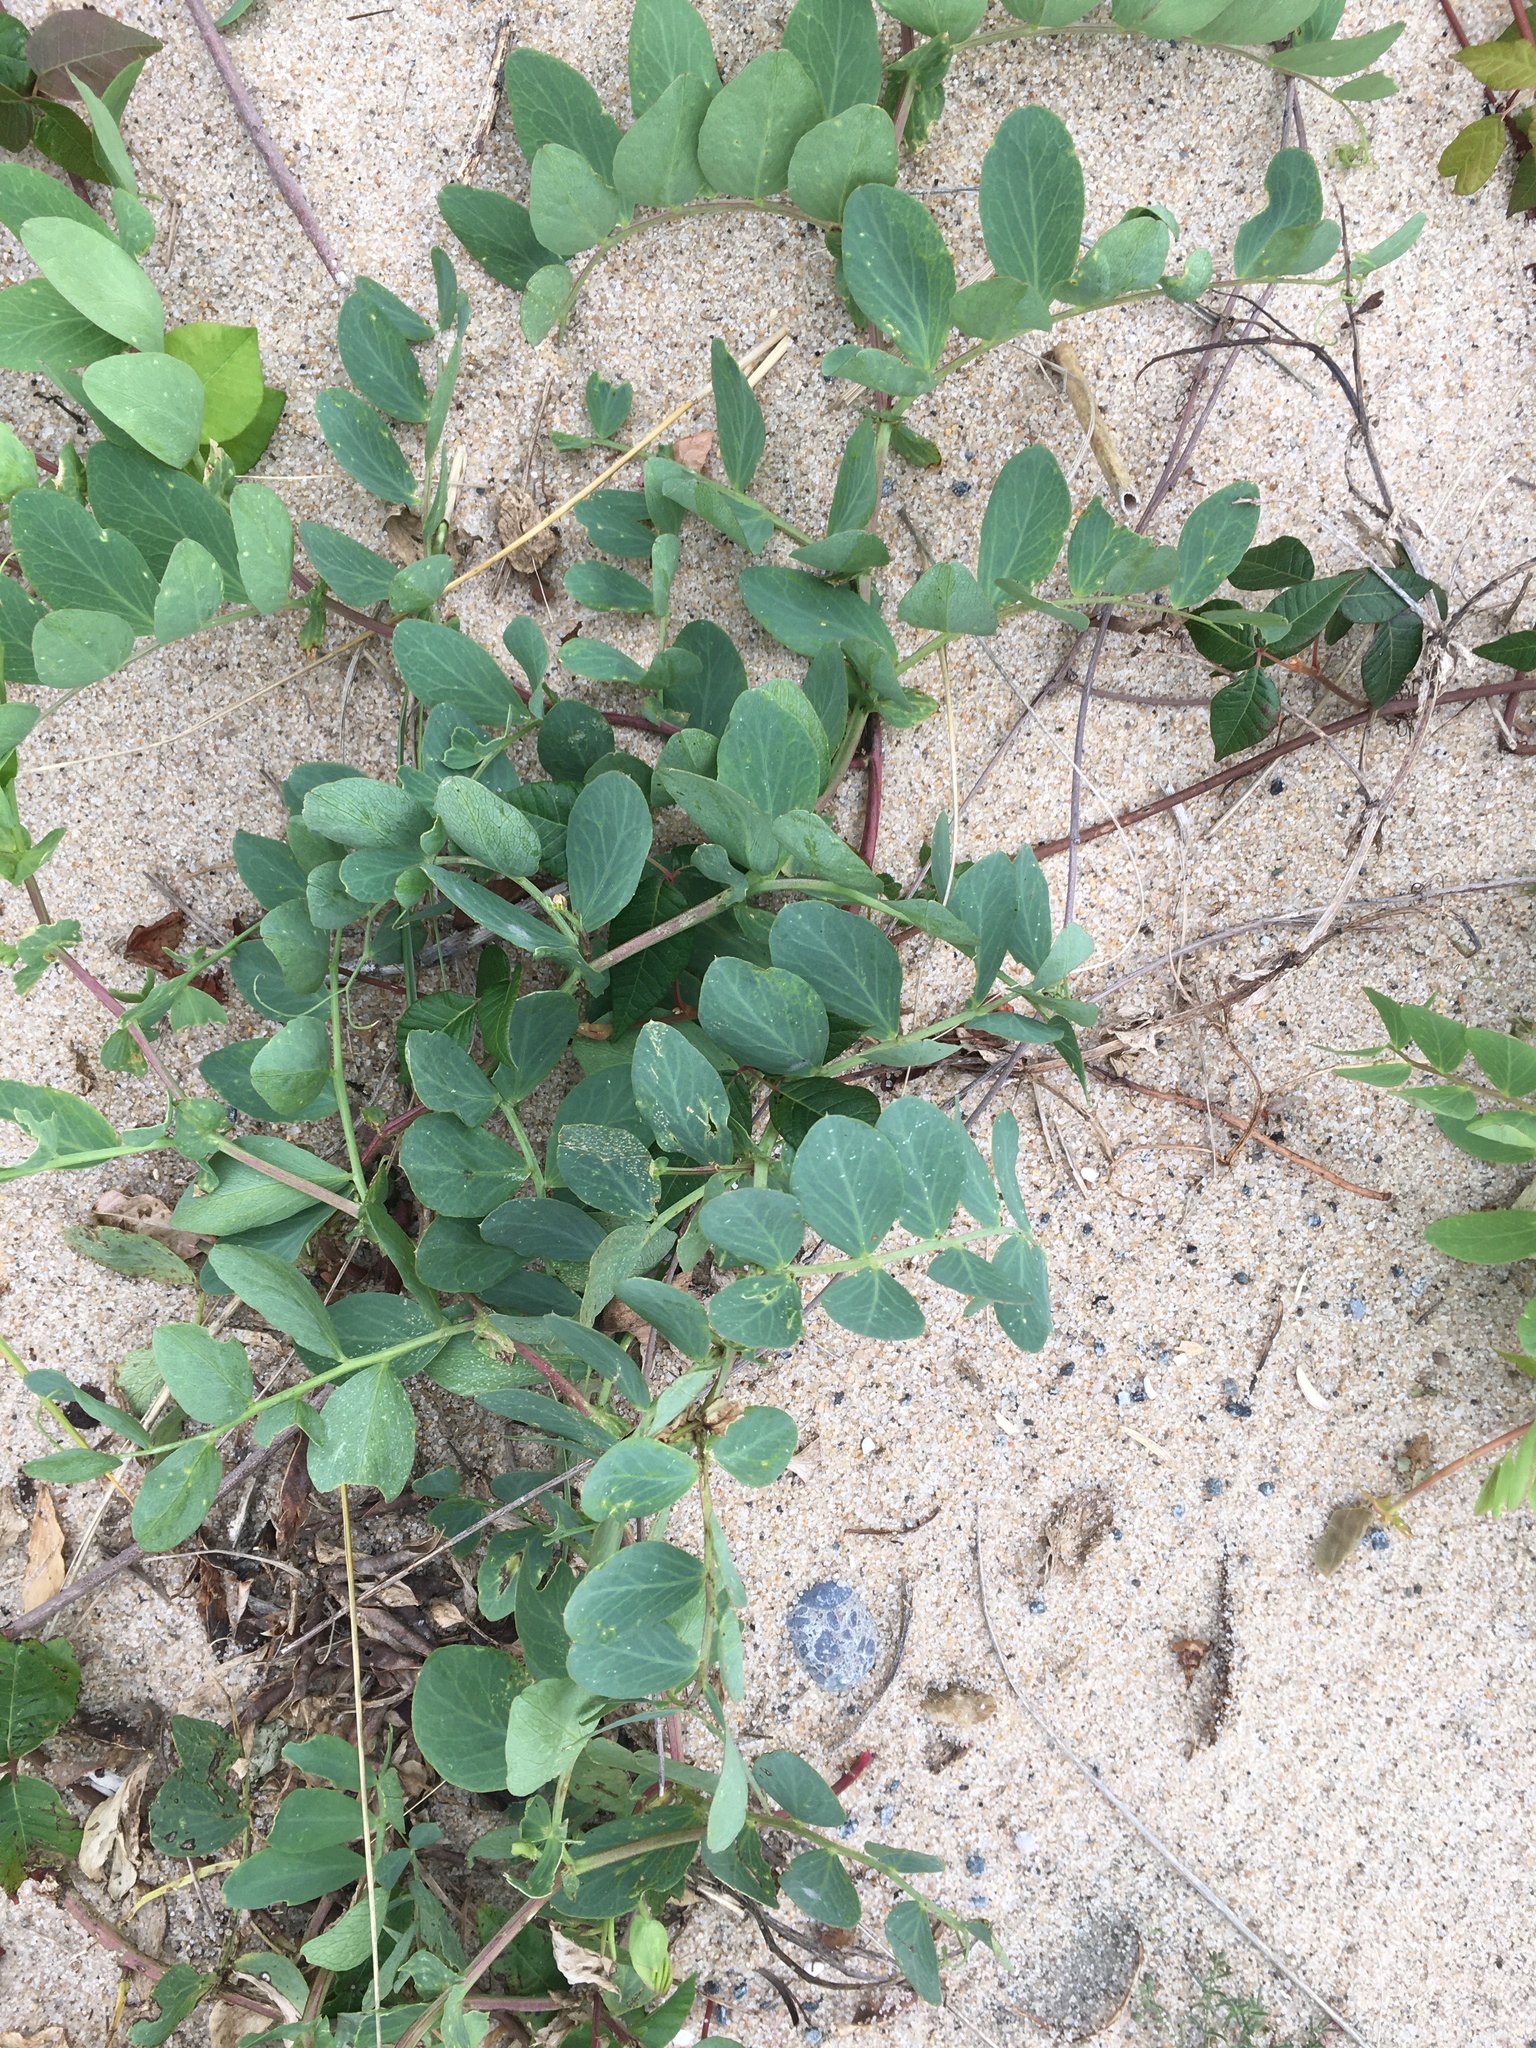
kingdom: Plantae
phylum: Tracheophyta
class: Magnoliopsida
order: Fabales
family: Fabaceae
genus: Lathyrus
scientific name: Lathyrus japonicus
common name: Sea pea
